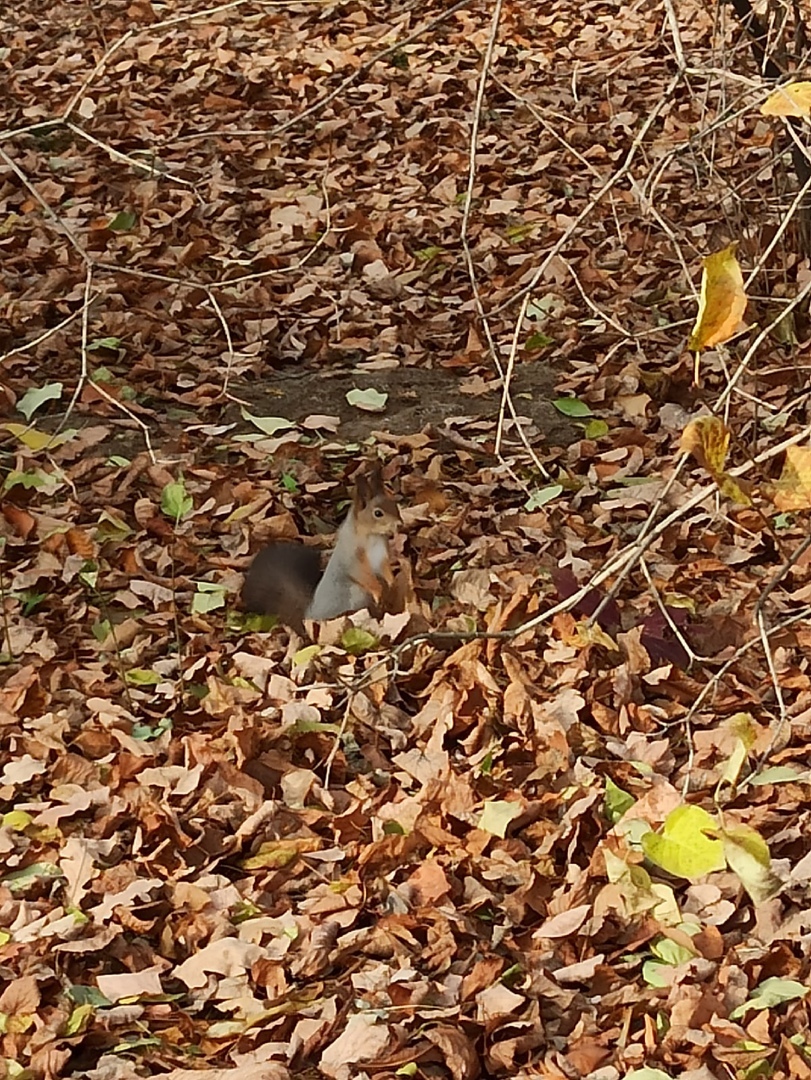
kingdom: Animalia
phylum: Chordata
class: Mammalia
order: Rodentia
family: Sciuridae
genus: Sciurus
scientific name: Sciurus vulgaris
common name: Eurasian red squirrel
